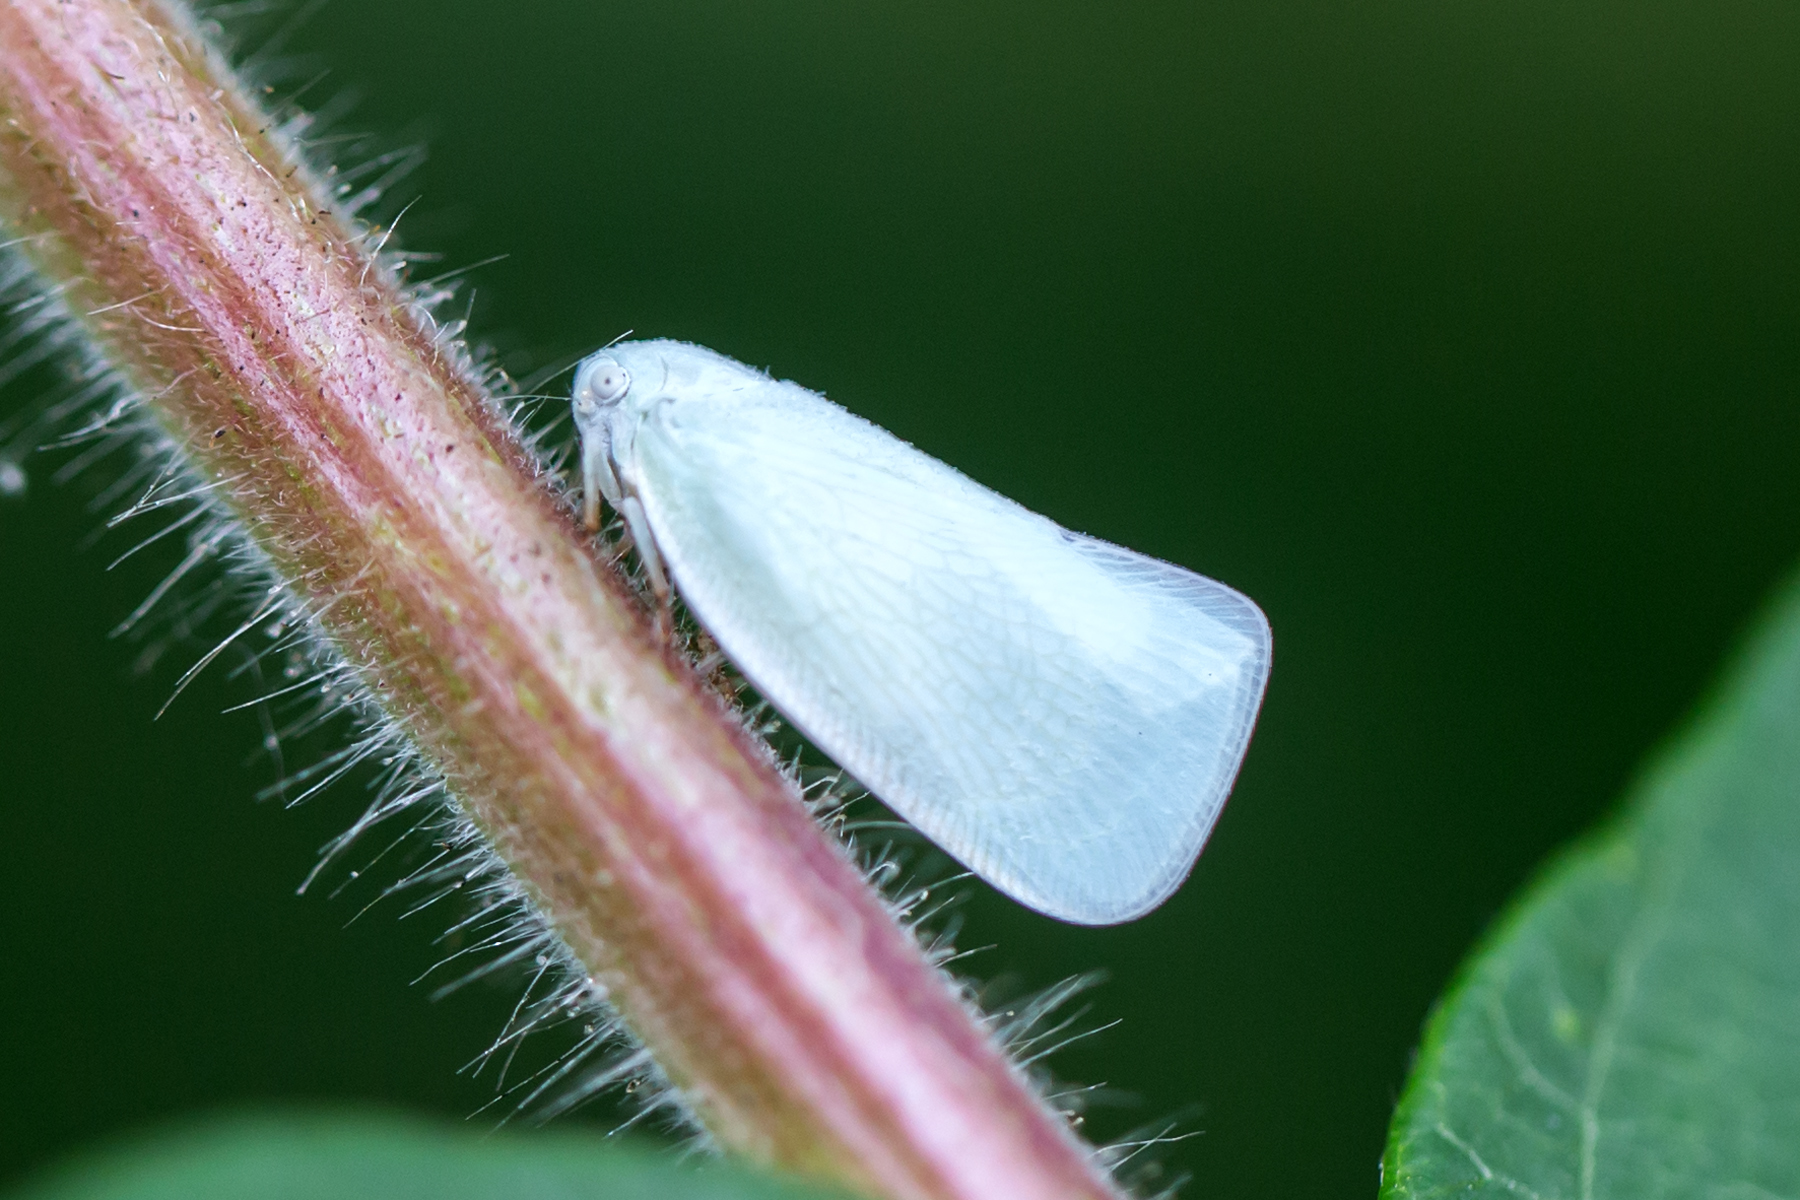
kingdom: Animalia
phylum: Arthropoda
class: Insecta
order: Hemiptera
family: Flatidae
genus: Flatormenis
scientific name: Flatormenis proxima
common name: Northern flatid planthopper
